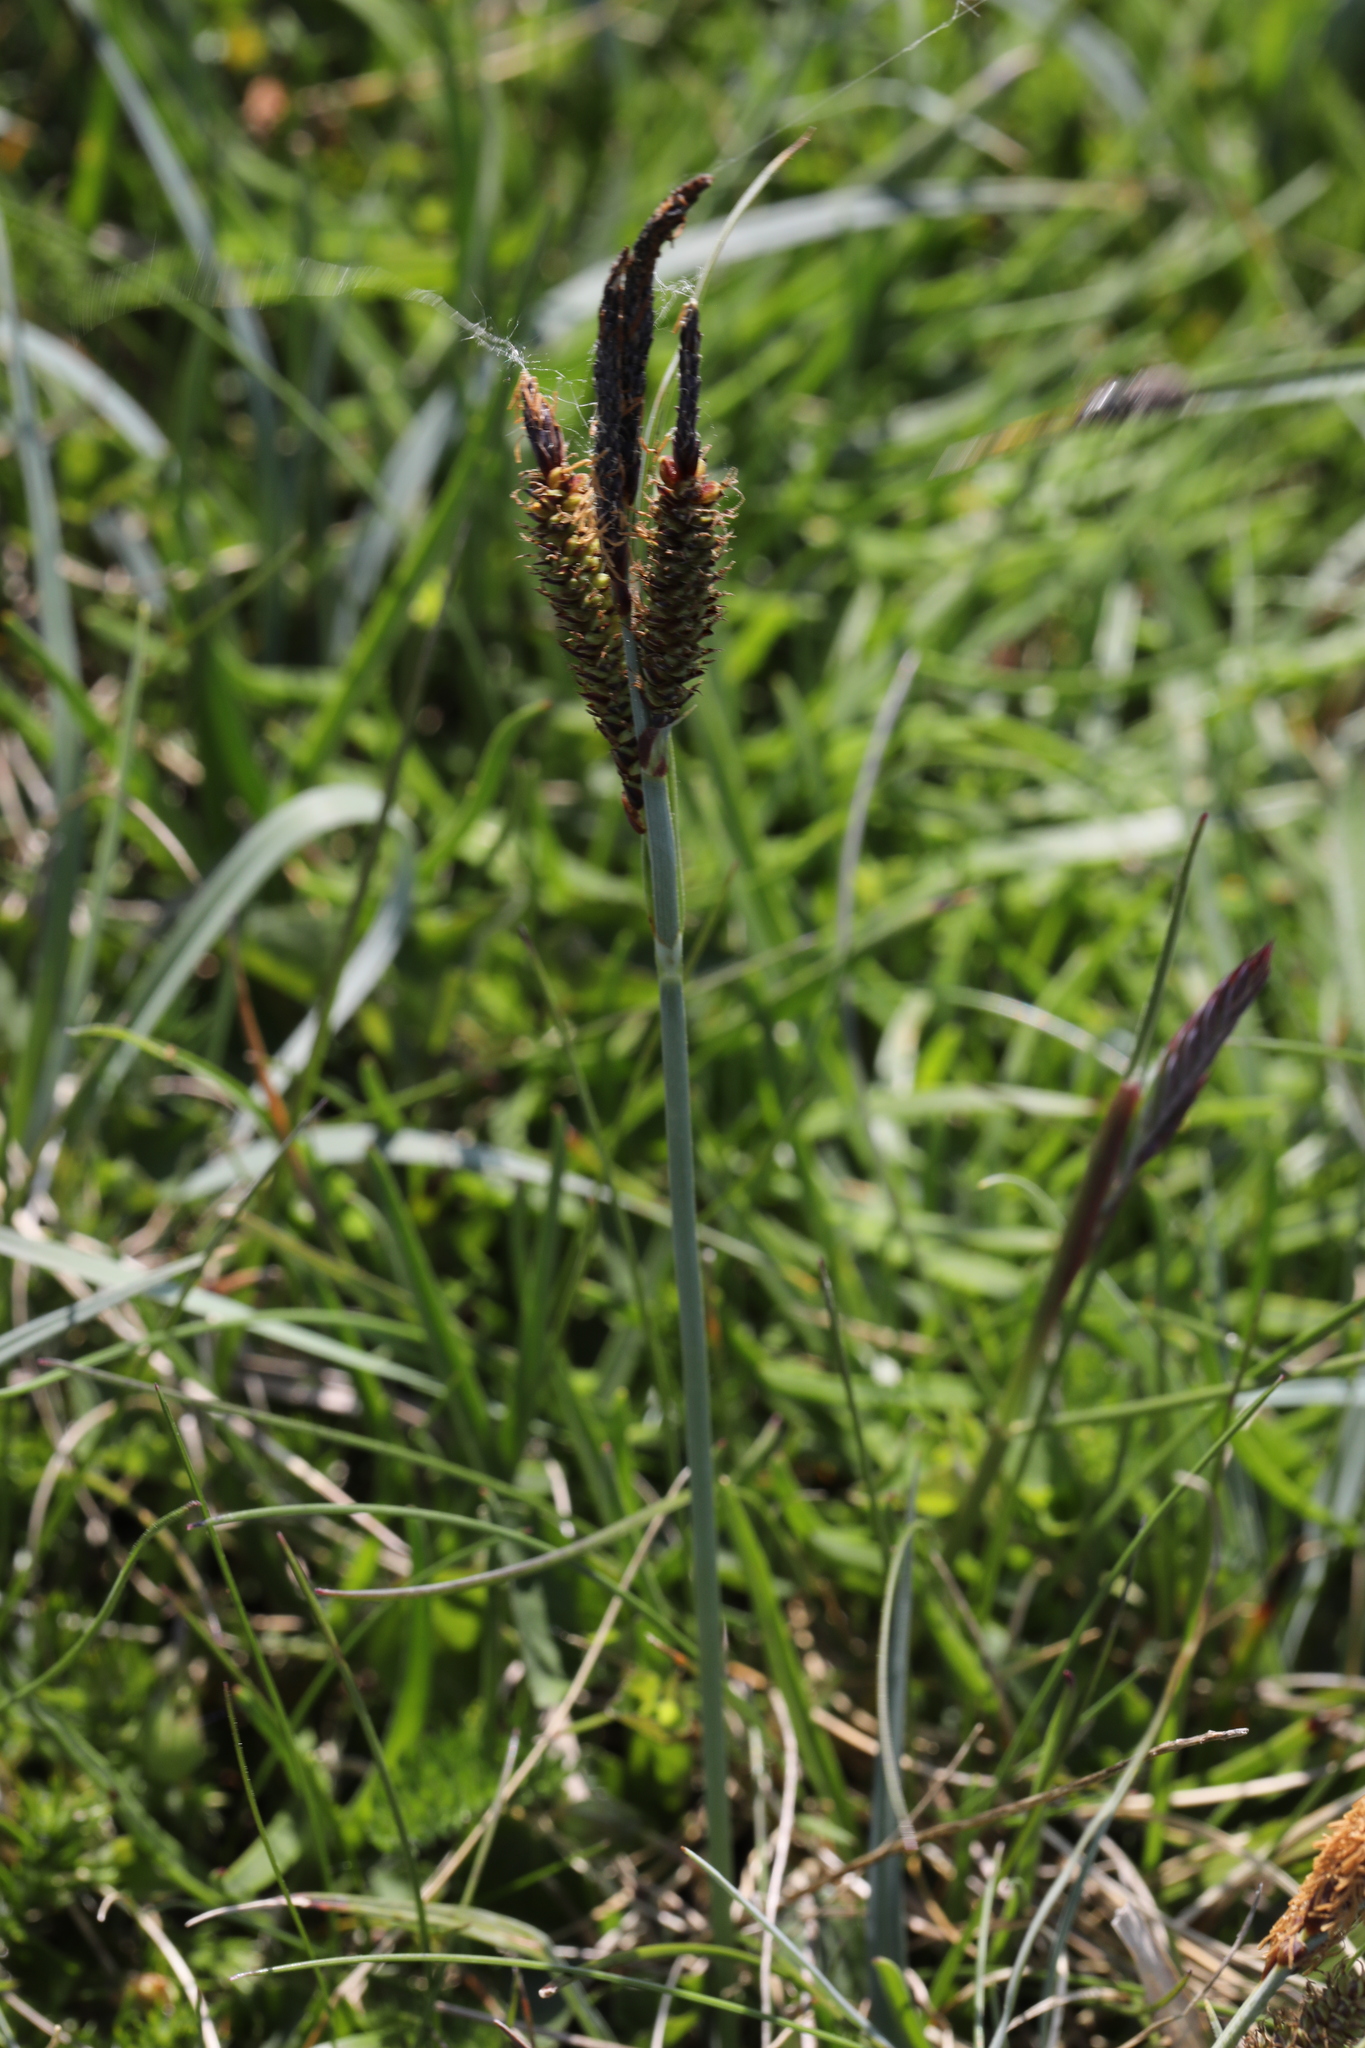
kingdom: Plantae
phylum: Tracheophyta
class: Liliopsida
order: Poales
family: Cyperaceae
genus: Carex
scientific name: Carex flacca
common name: Glaucous sedge
